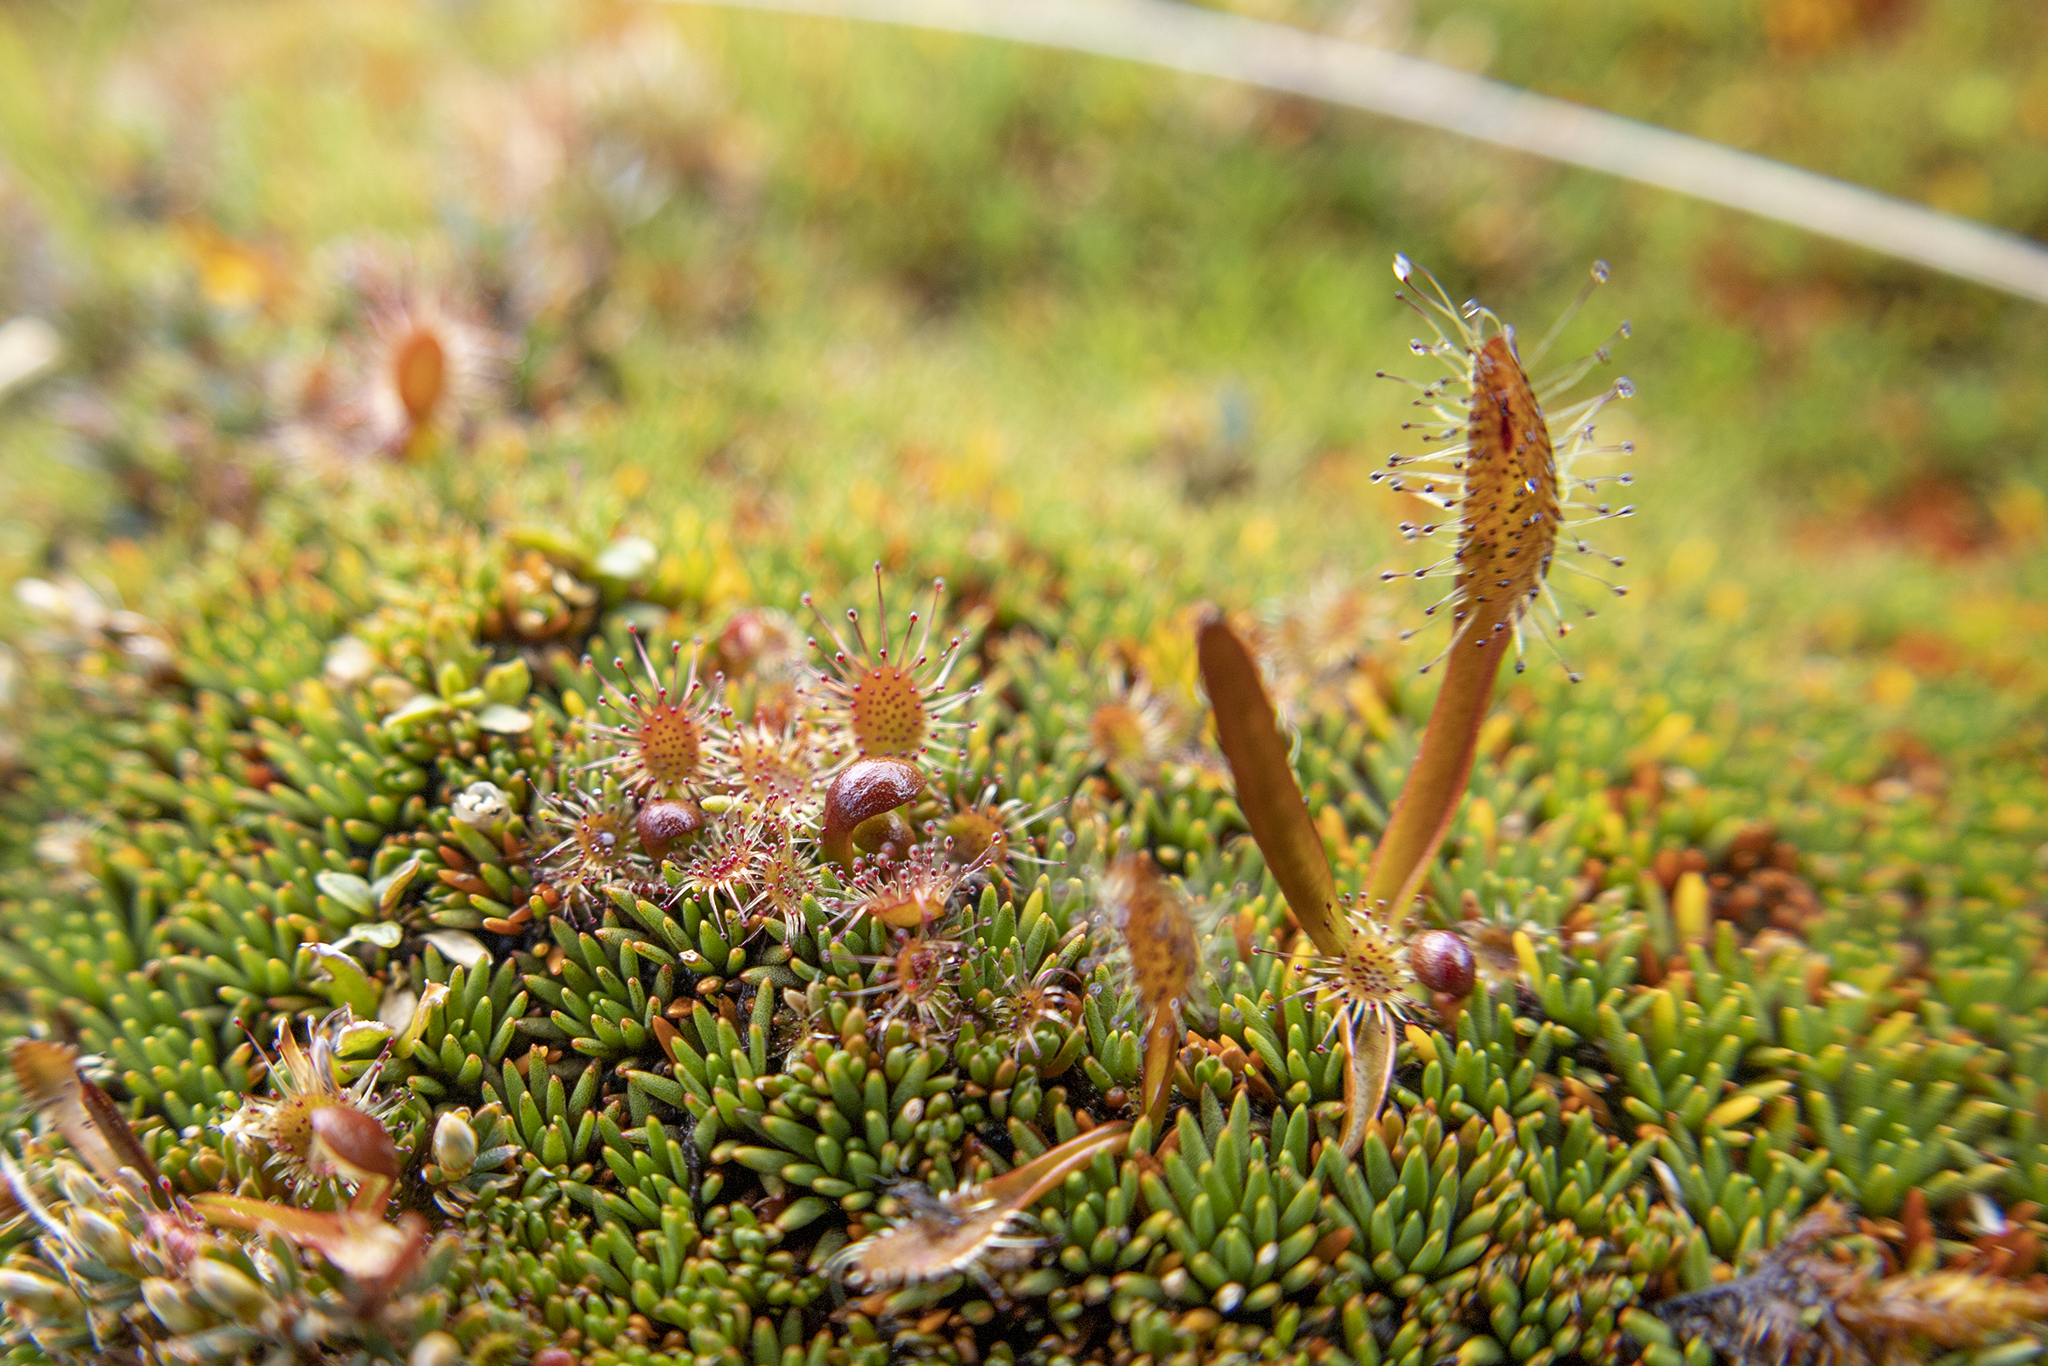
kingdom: Plantae
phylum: Tracheophyta
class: Magnoliopsida
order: Caryophyllales
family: Droseraceae
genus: Drosera
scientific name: Drosera stenopetala
